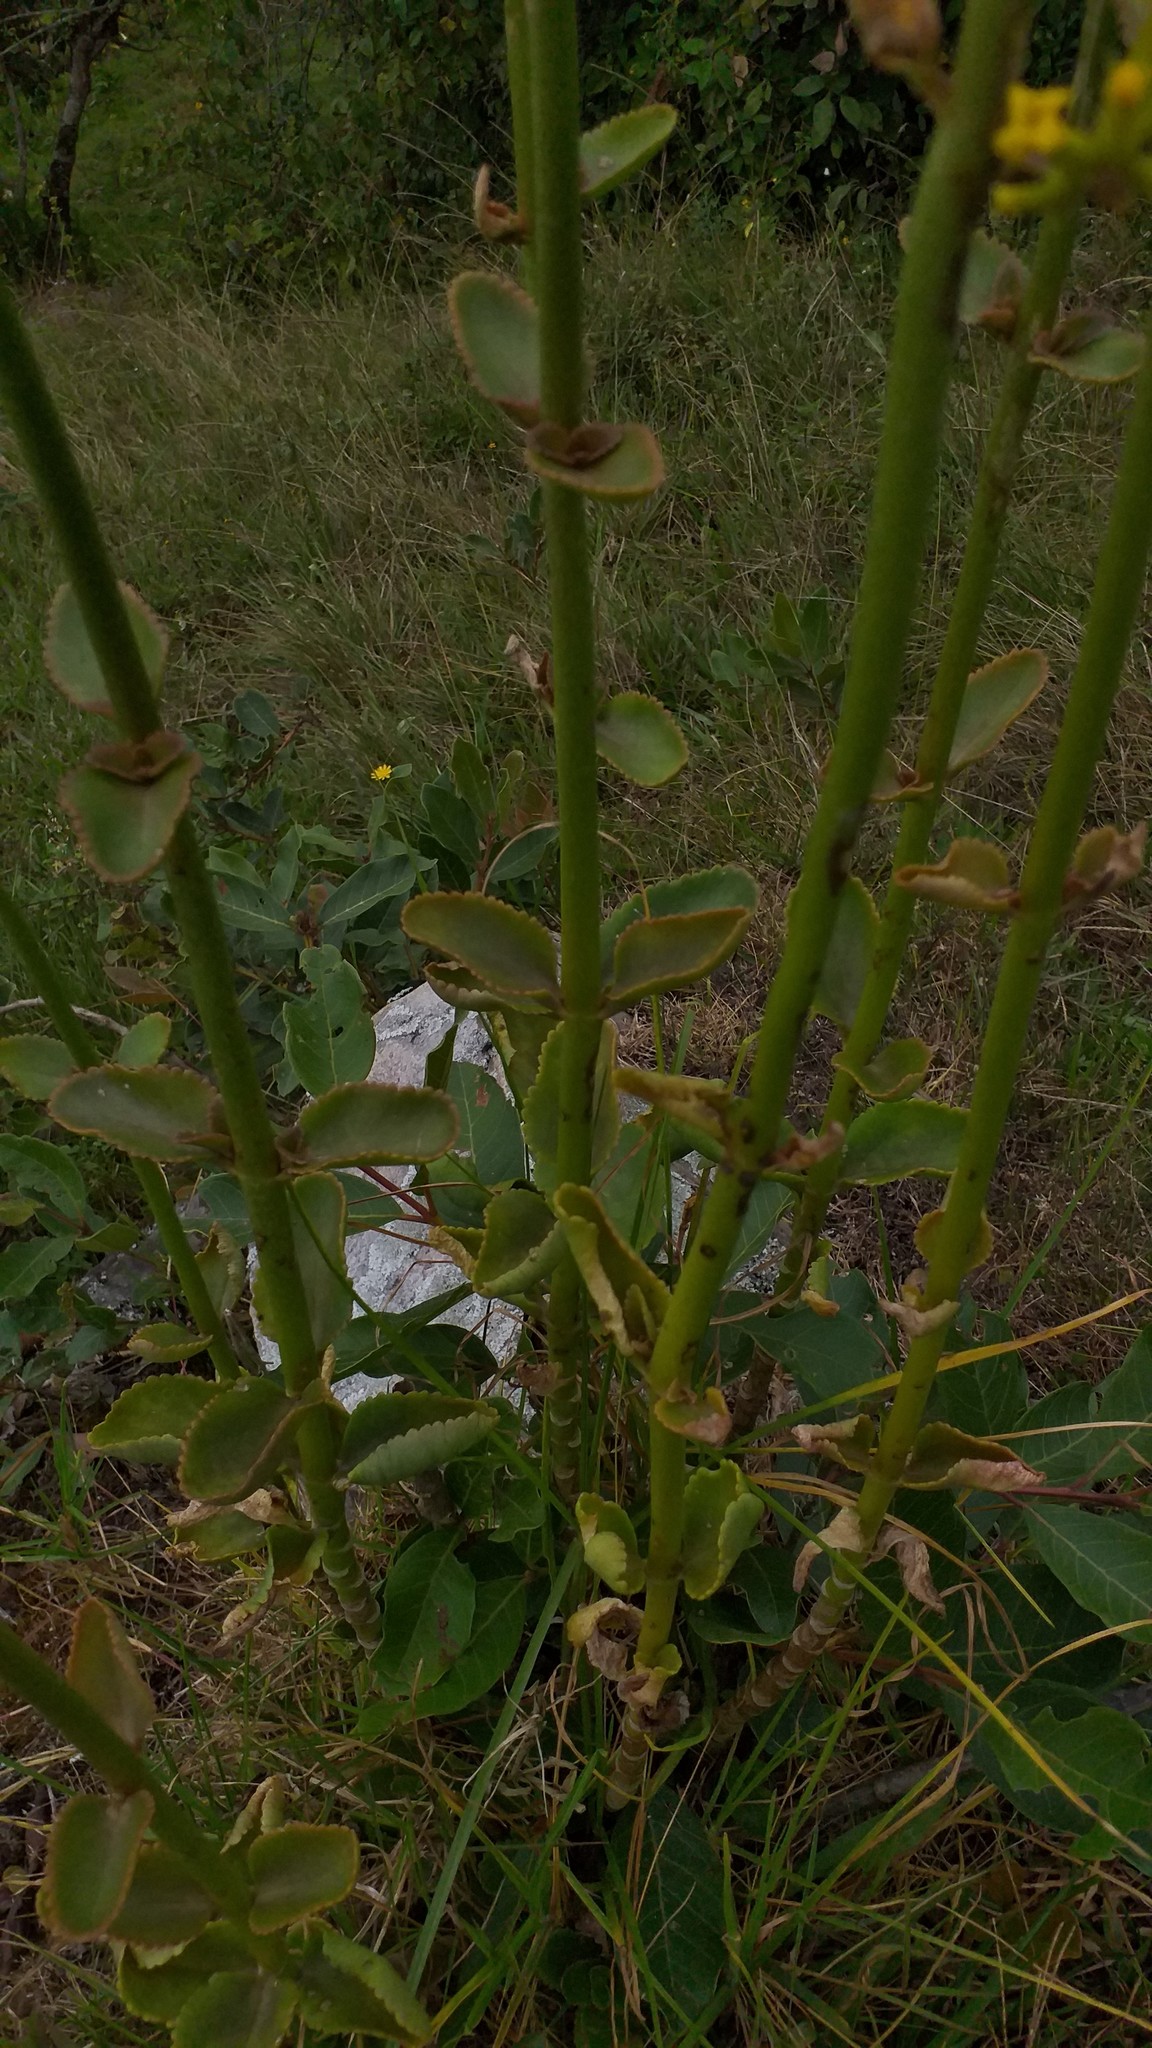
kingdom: Plantae
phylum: Tracheophyta
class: Magnoliopsida
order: Saxifragales
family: Crassulaceae
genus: Kalanchoe
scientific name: Kalanchoe densiflora
